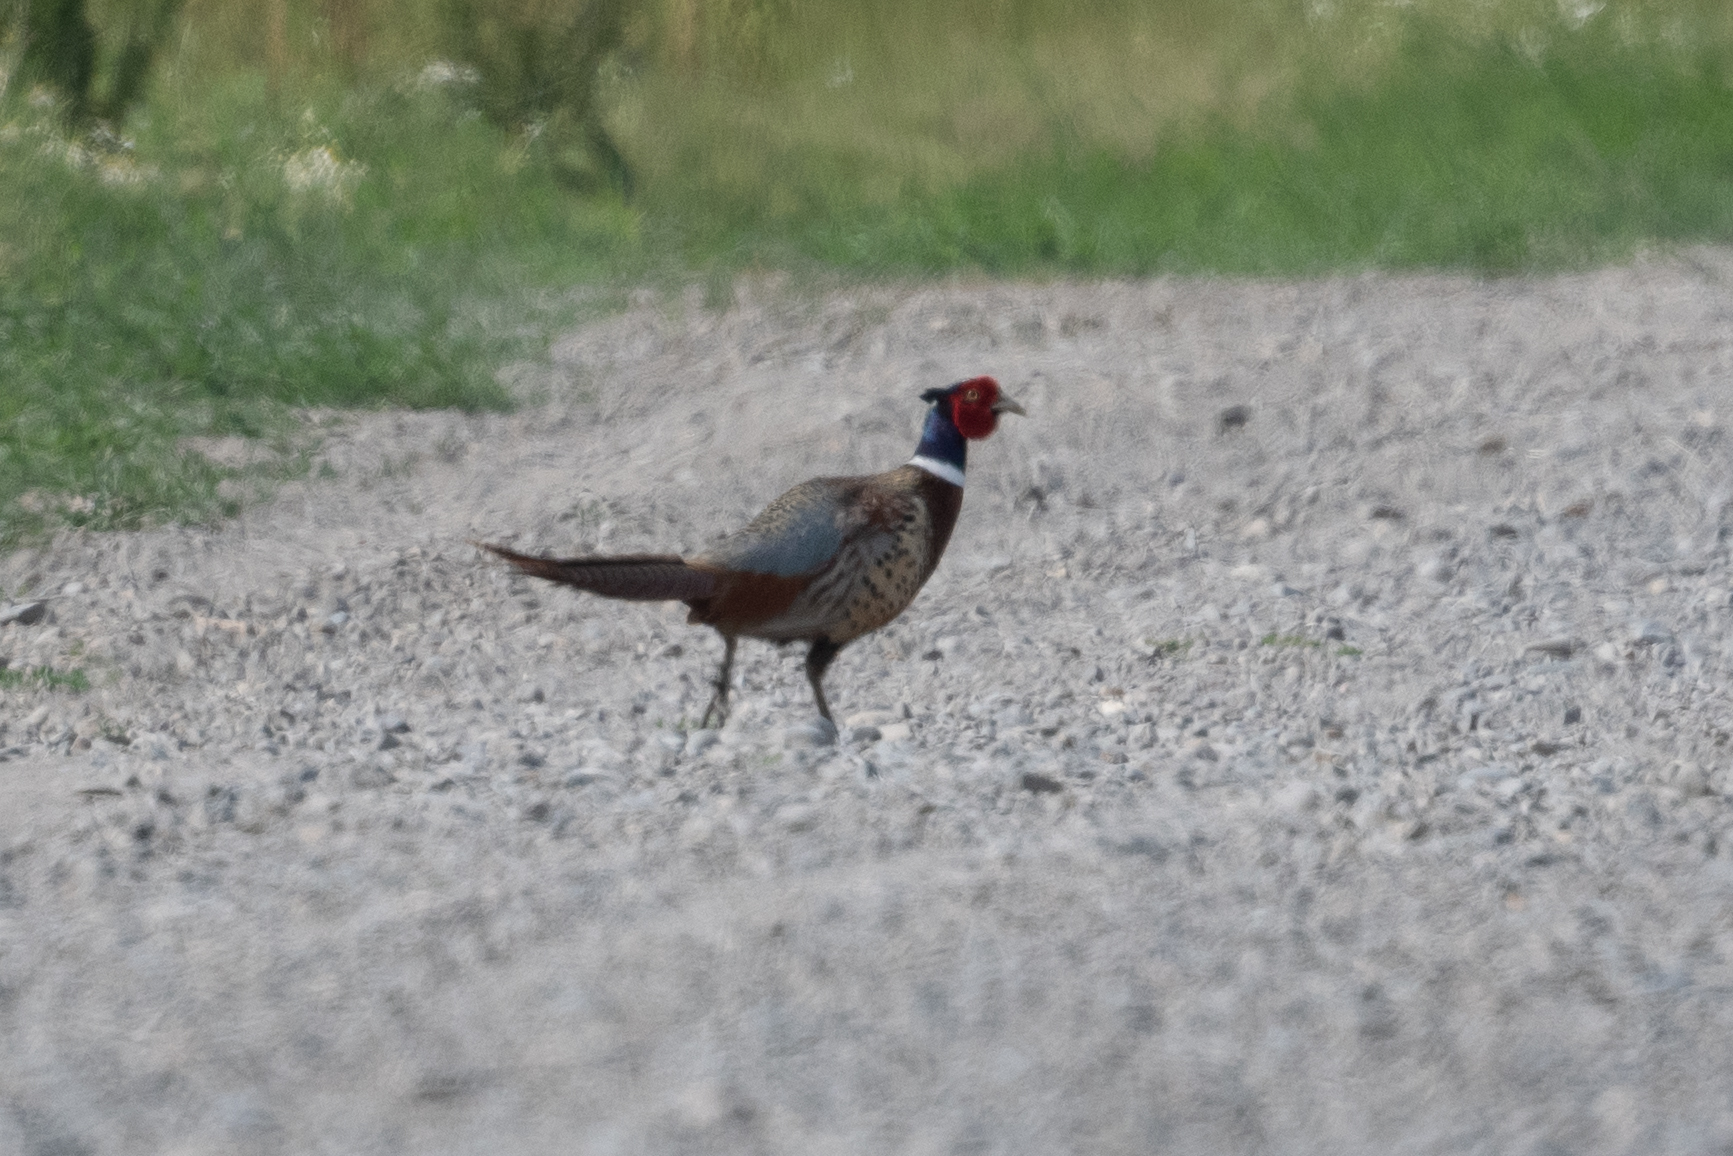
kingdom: Animalia
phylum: Chordata
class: Aves
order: Galliformes
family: Phasianidae
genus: Phasianus
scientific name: Phasianus colchicus
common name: Common pheasant
